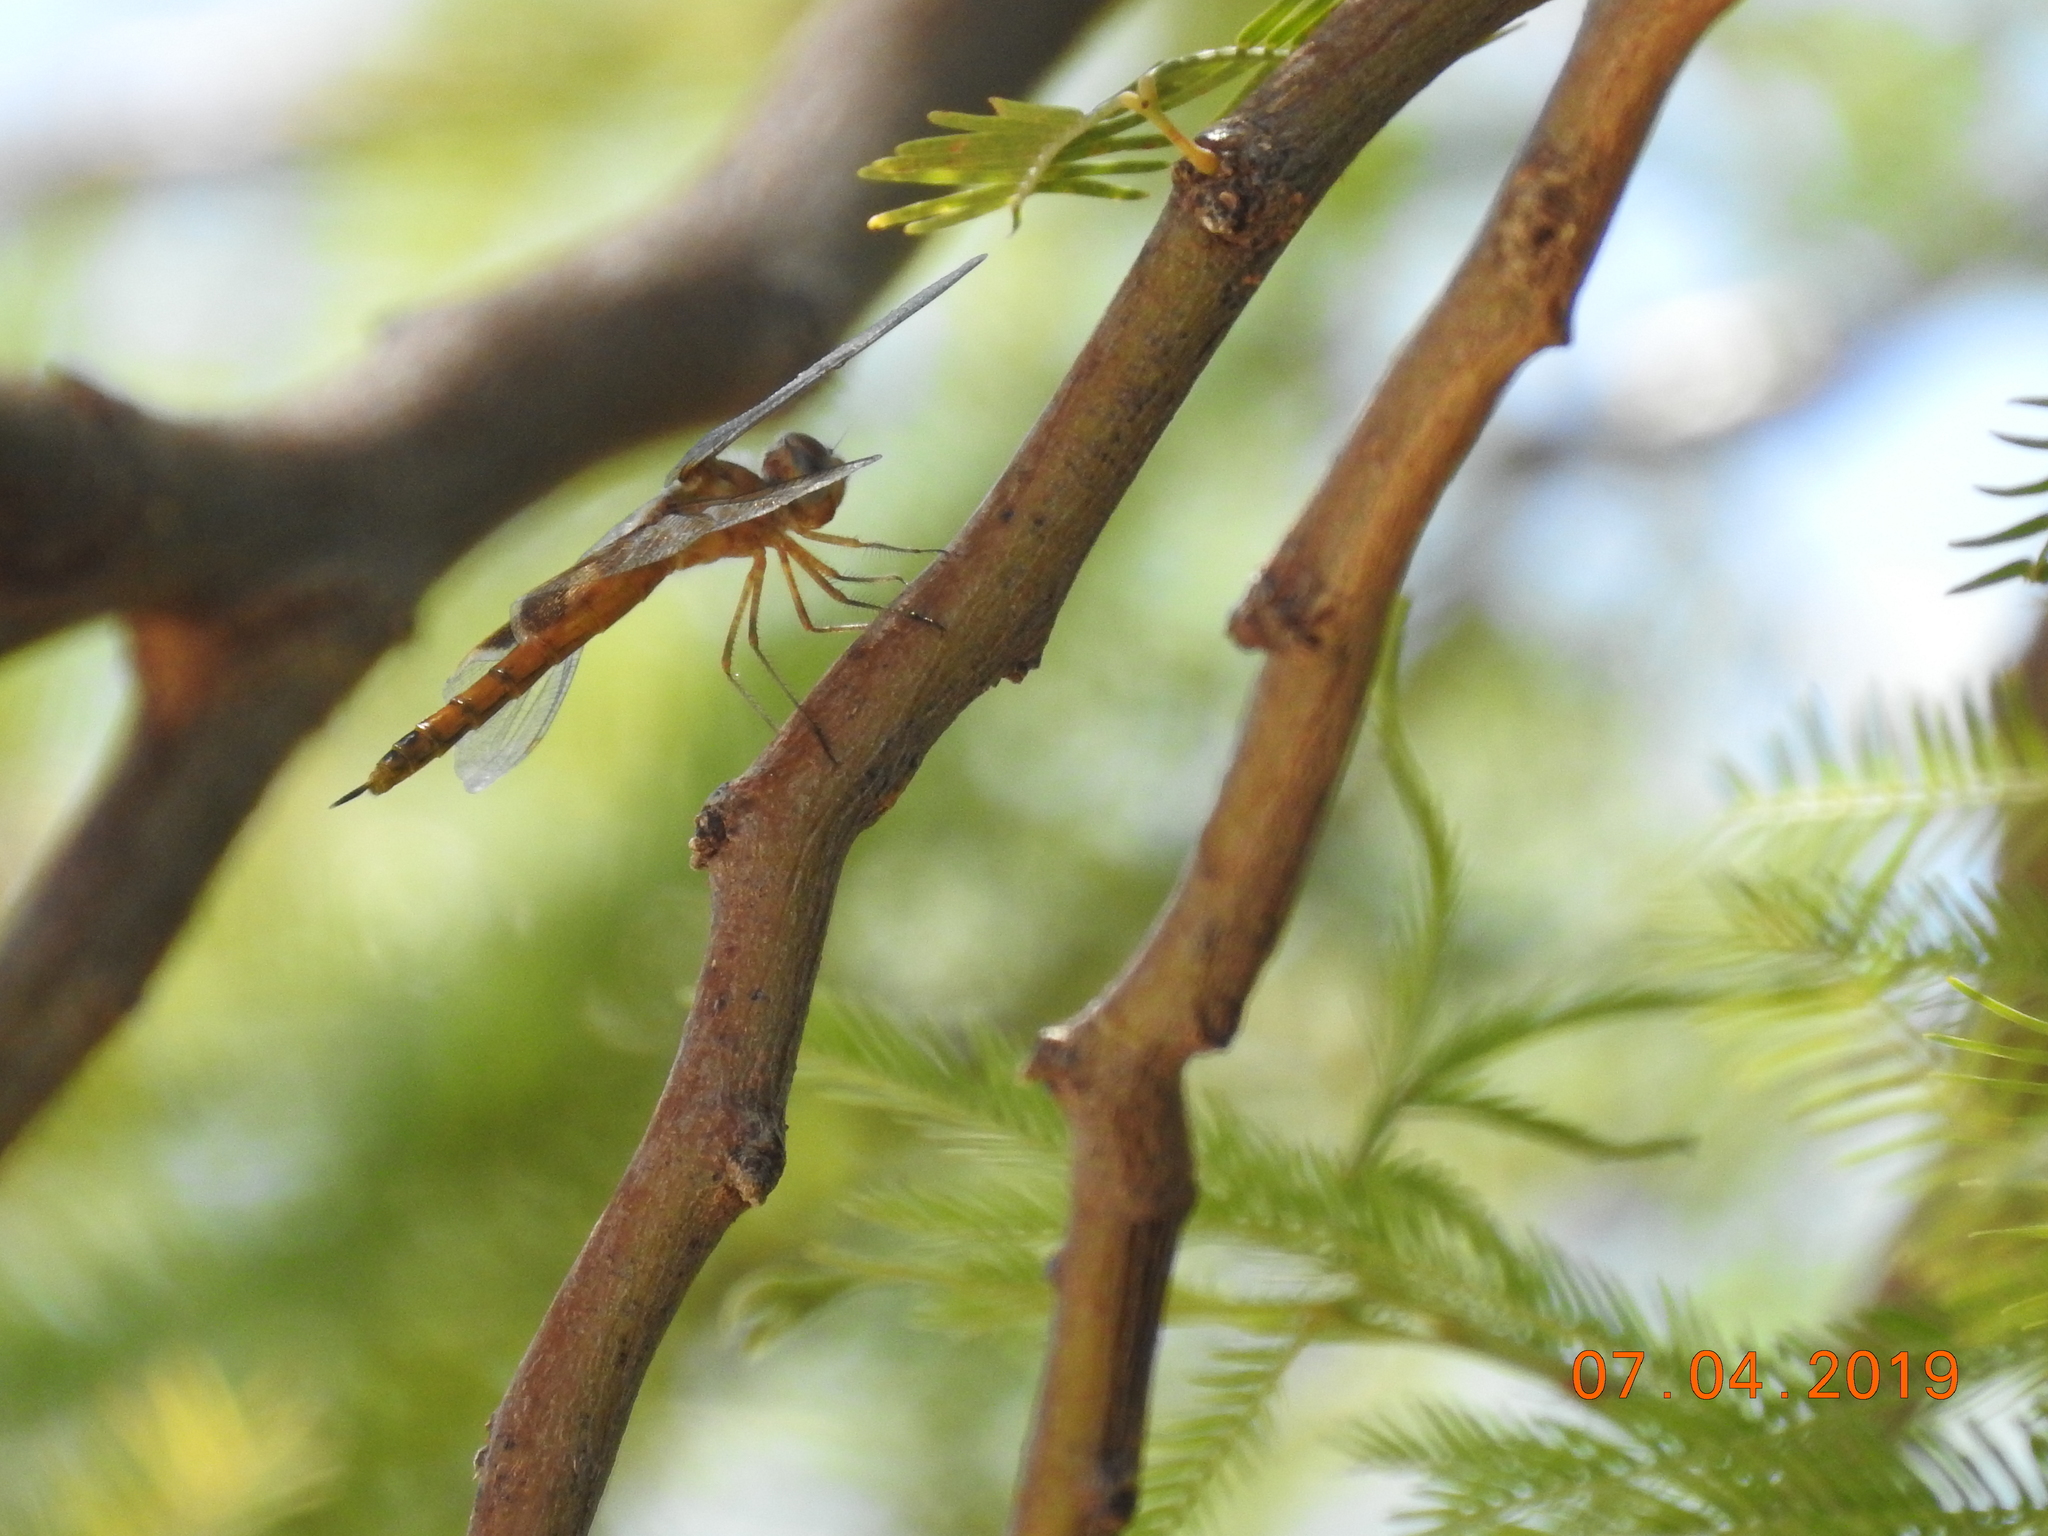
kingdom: Animalia
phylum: Arthropoda
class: Insecta
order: Odonata
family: Libellulidae
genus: Tramea
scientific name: Tramea onusta
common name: Red saddlebags
